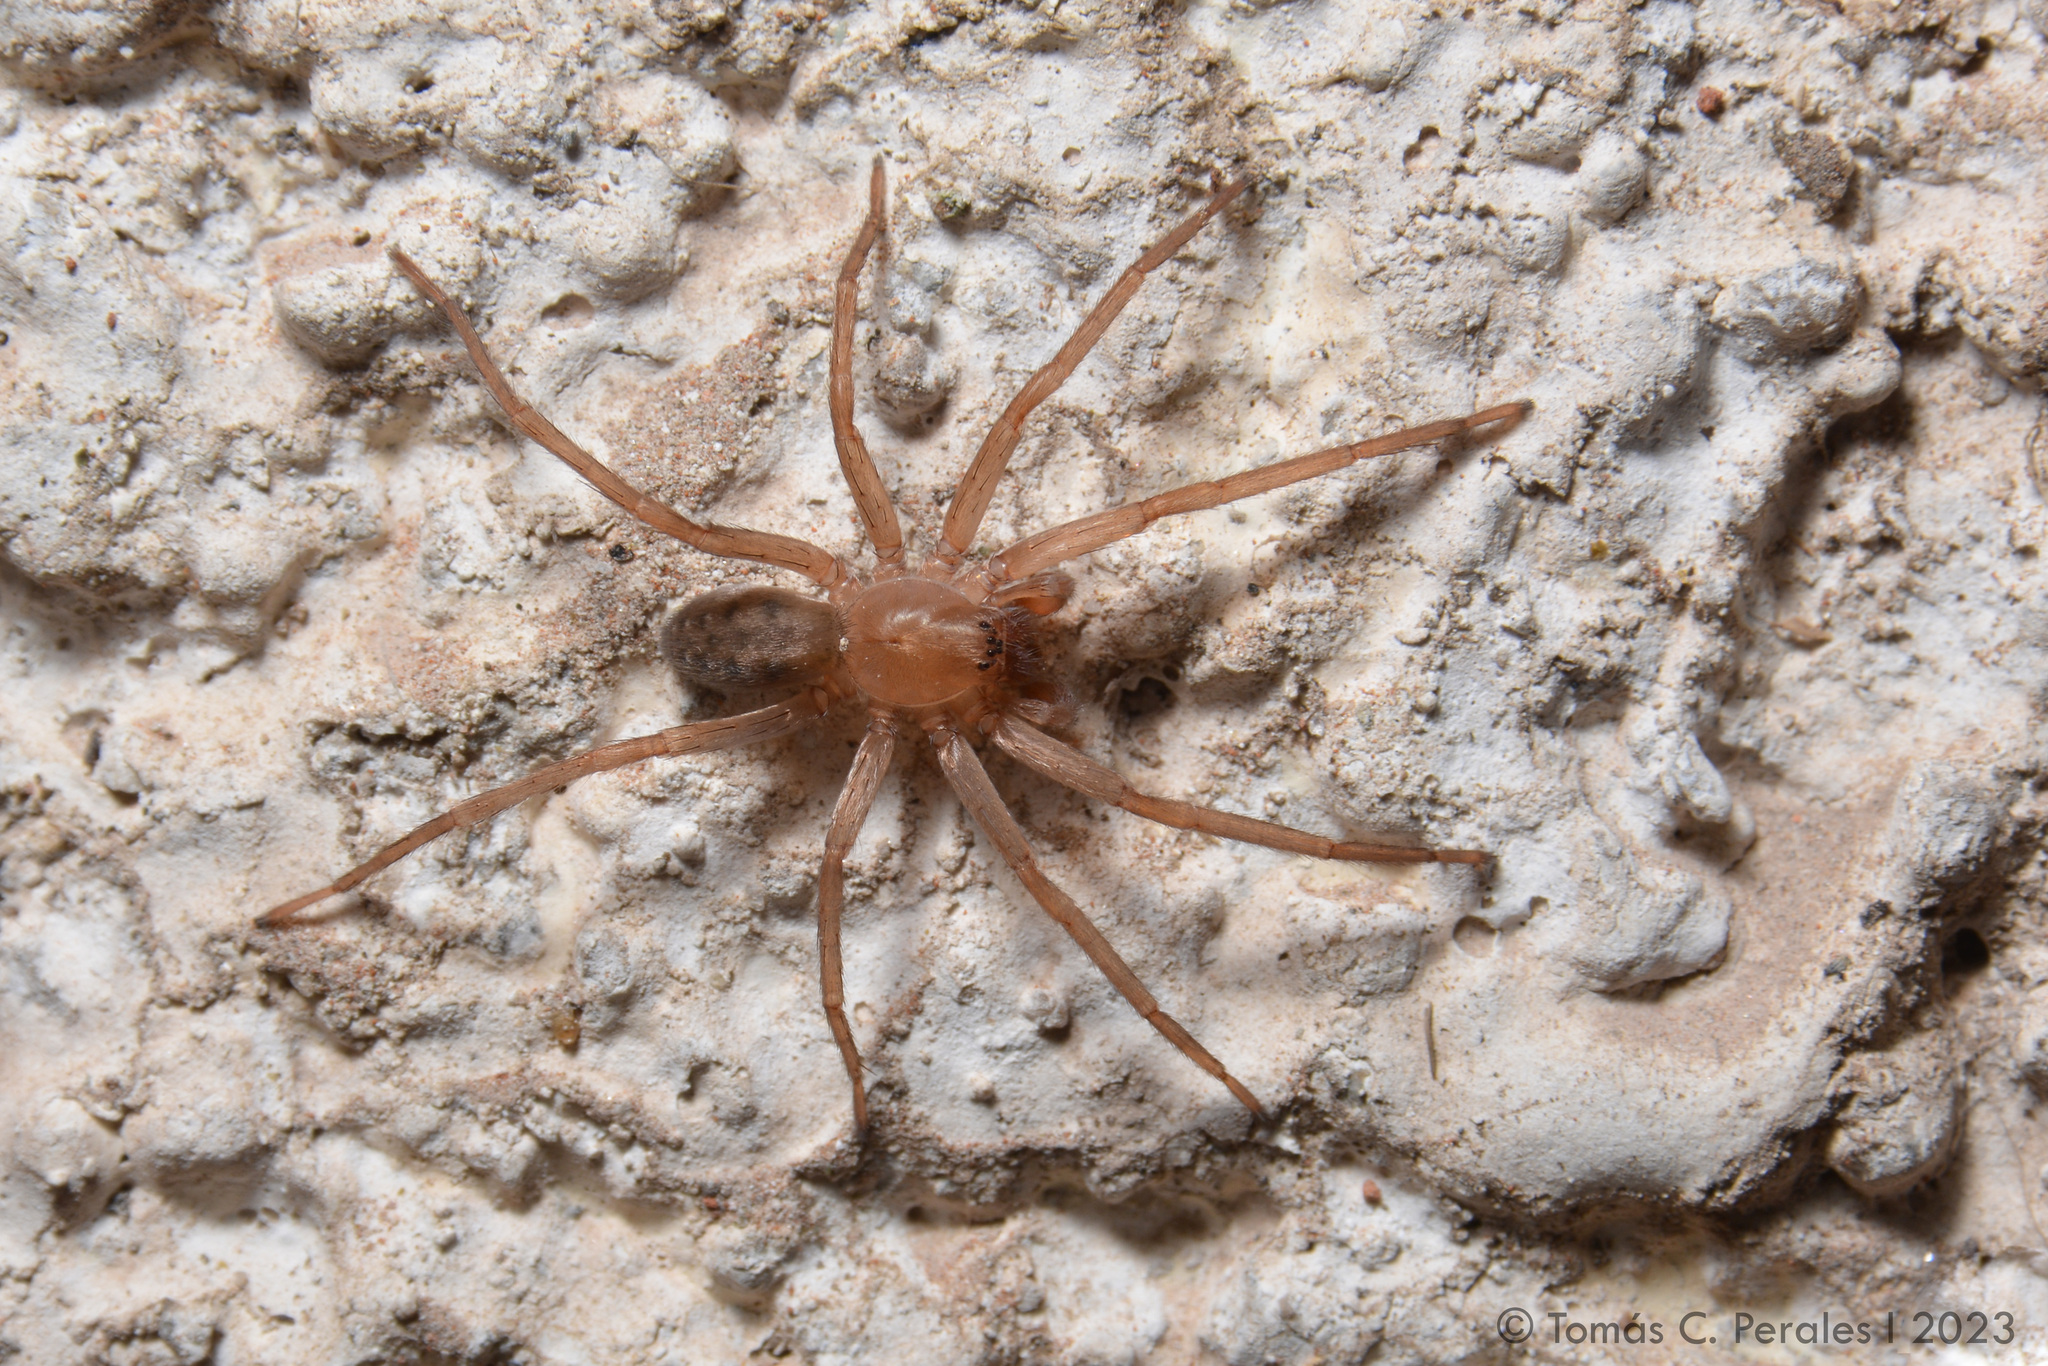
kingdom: Animalia
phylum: Arthropoda
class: Arachnida
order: Araneae
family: Ctenidae
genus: Asthenoctenus
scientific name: Asthenoctenus borellii
